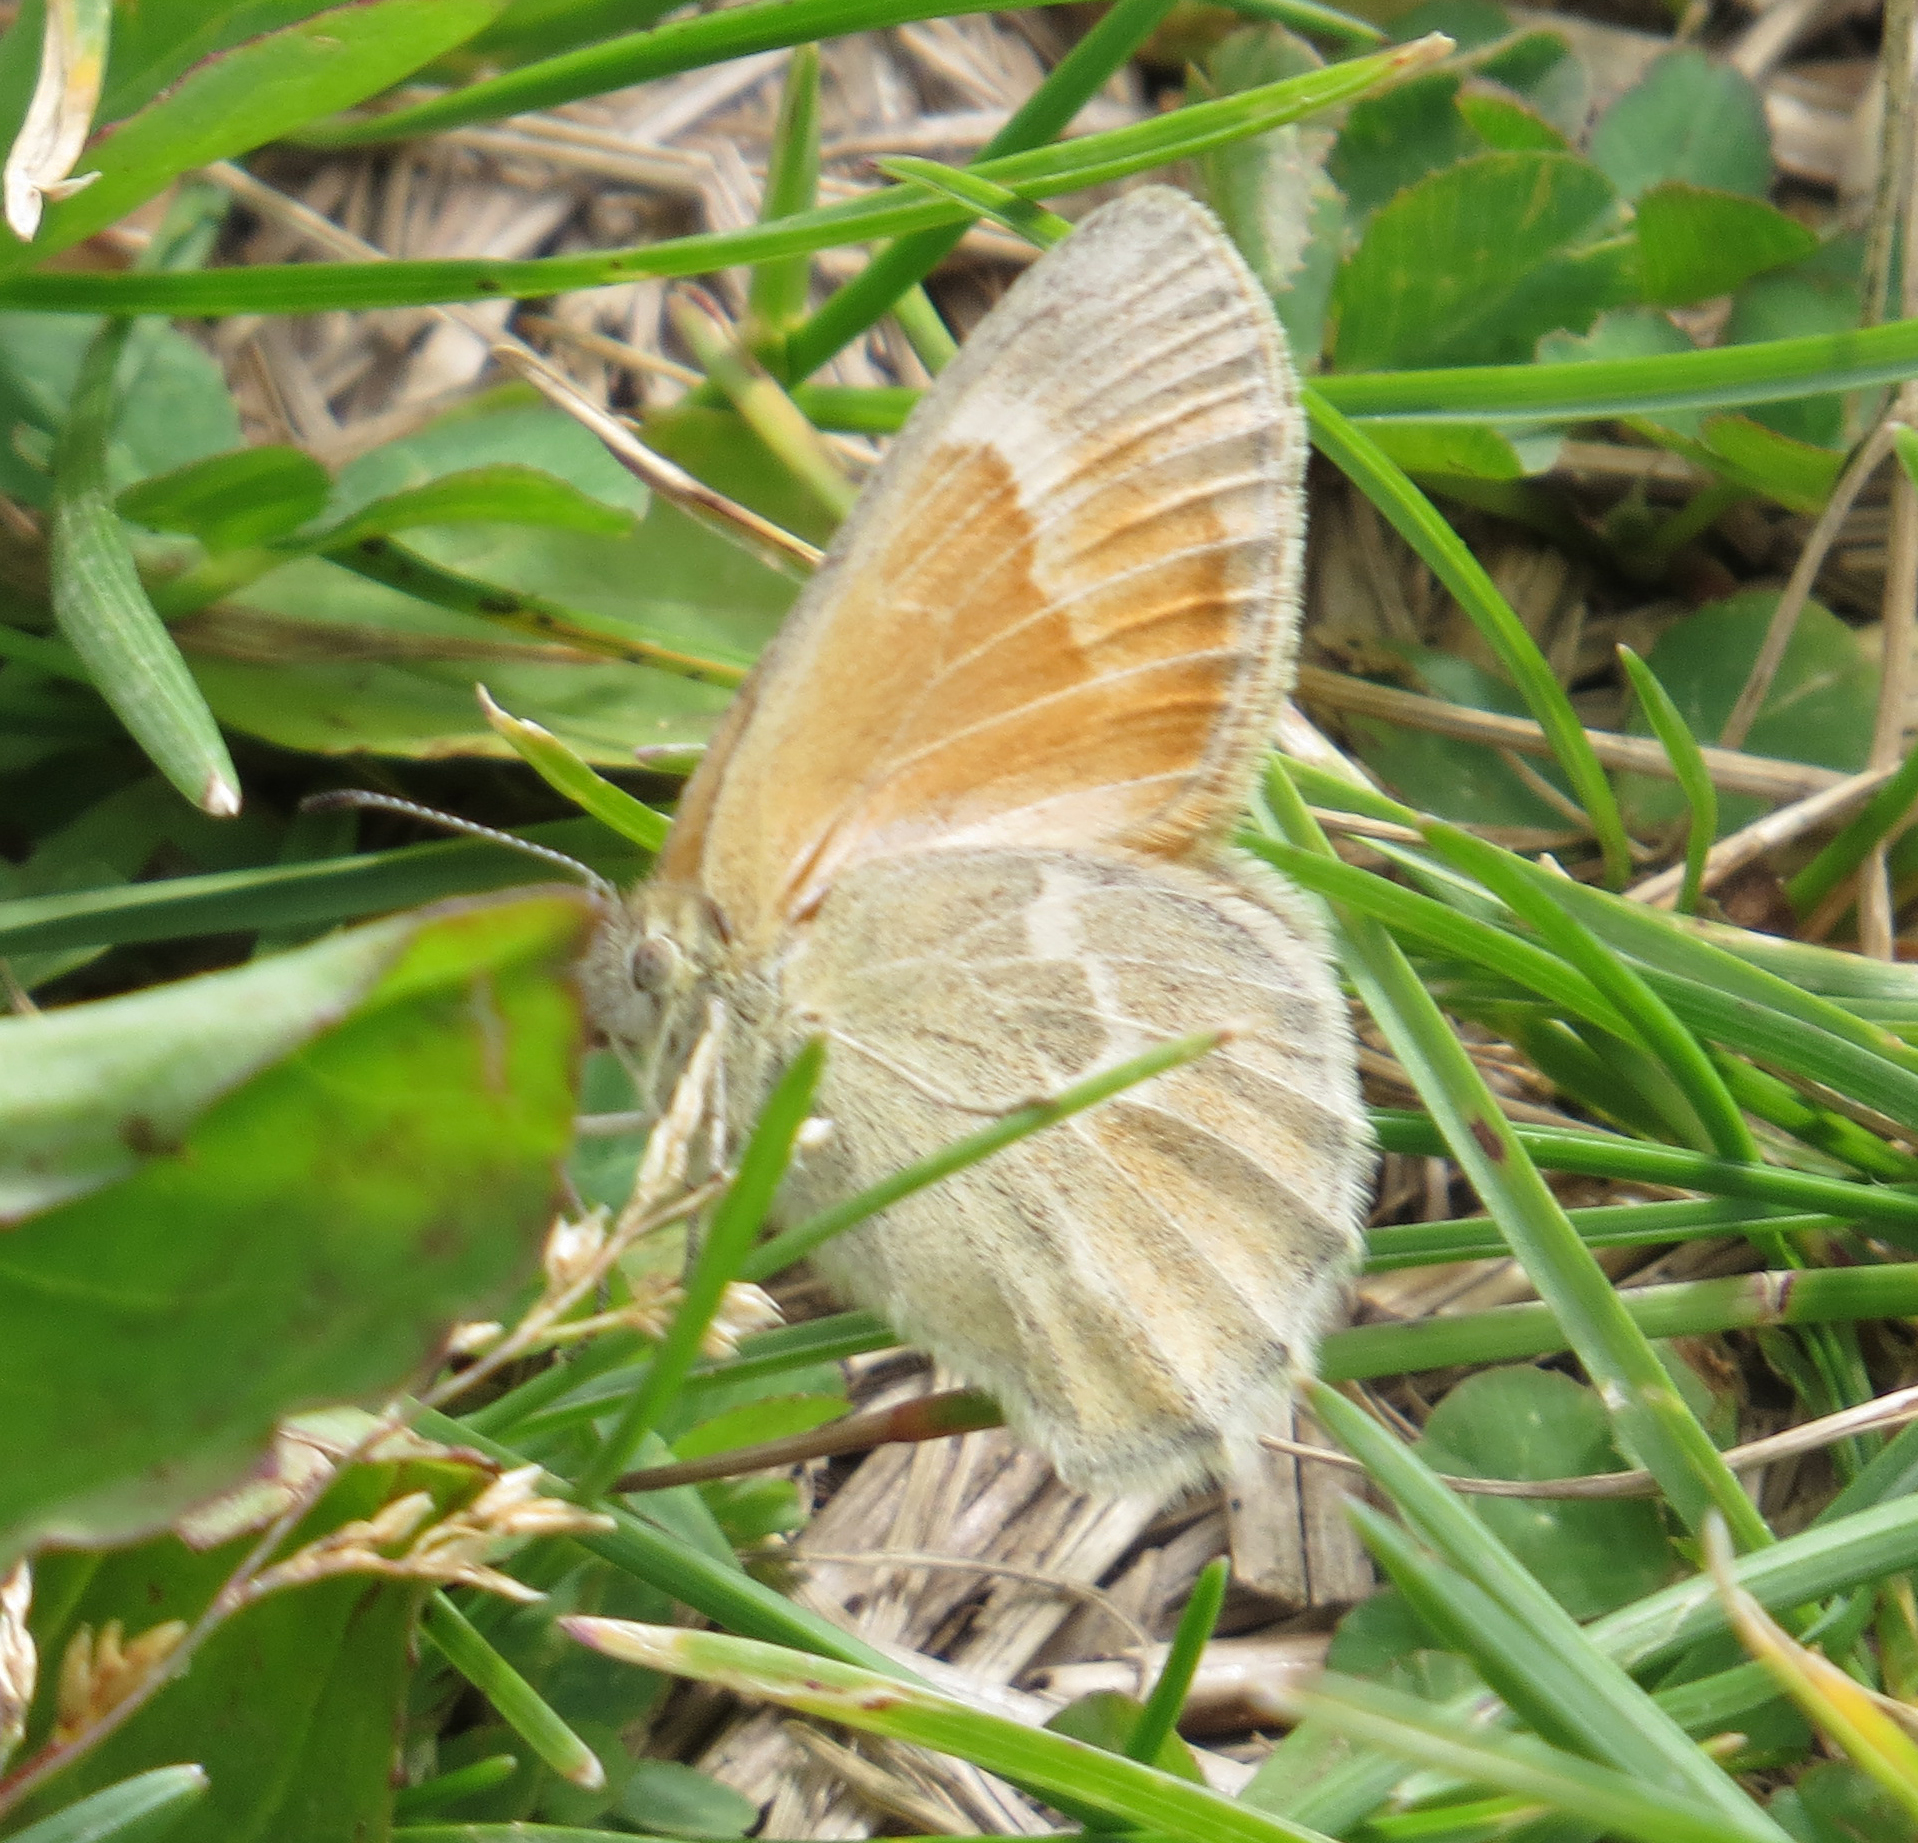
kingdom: Animalia
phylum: Arthropoda
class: Insecta
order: Lepidoptera
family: Nymphalidae
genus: Coenonympha
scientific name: Coenonympha california
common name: Common ringlet
